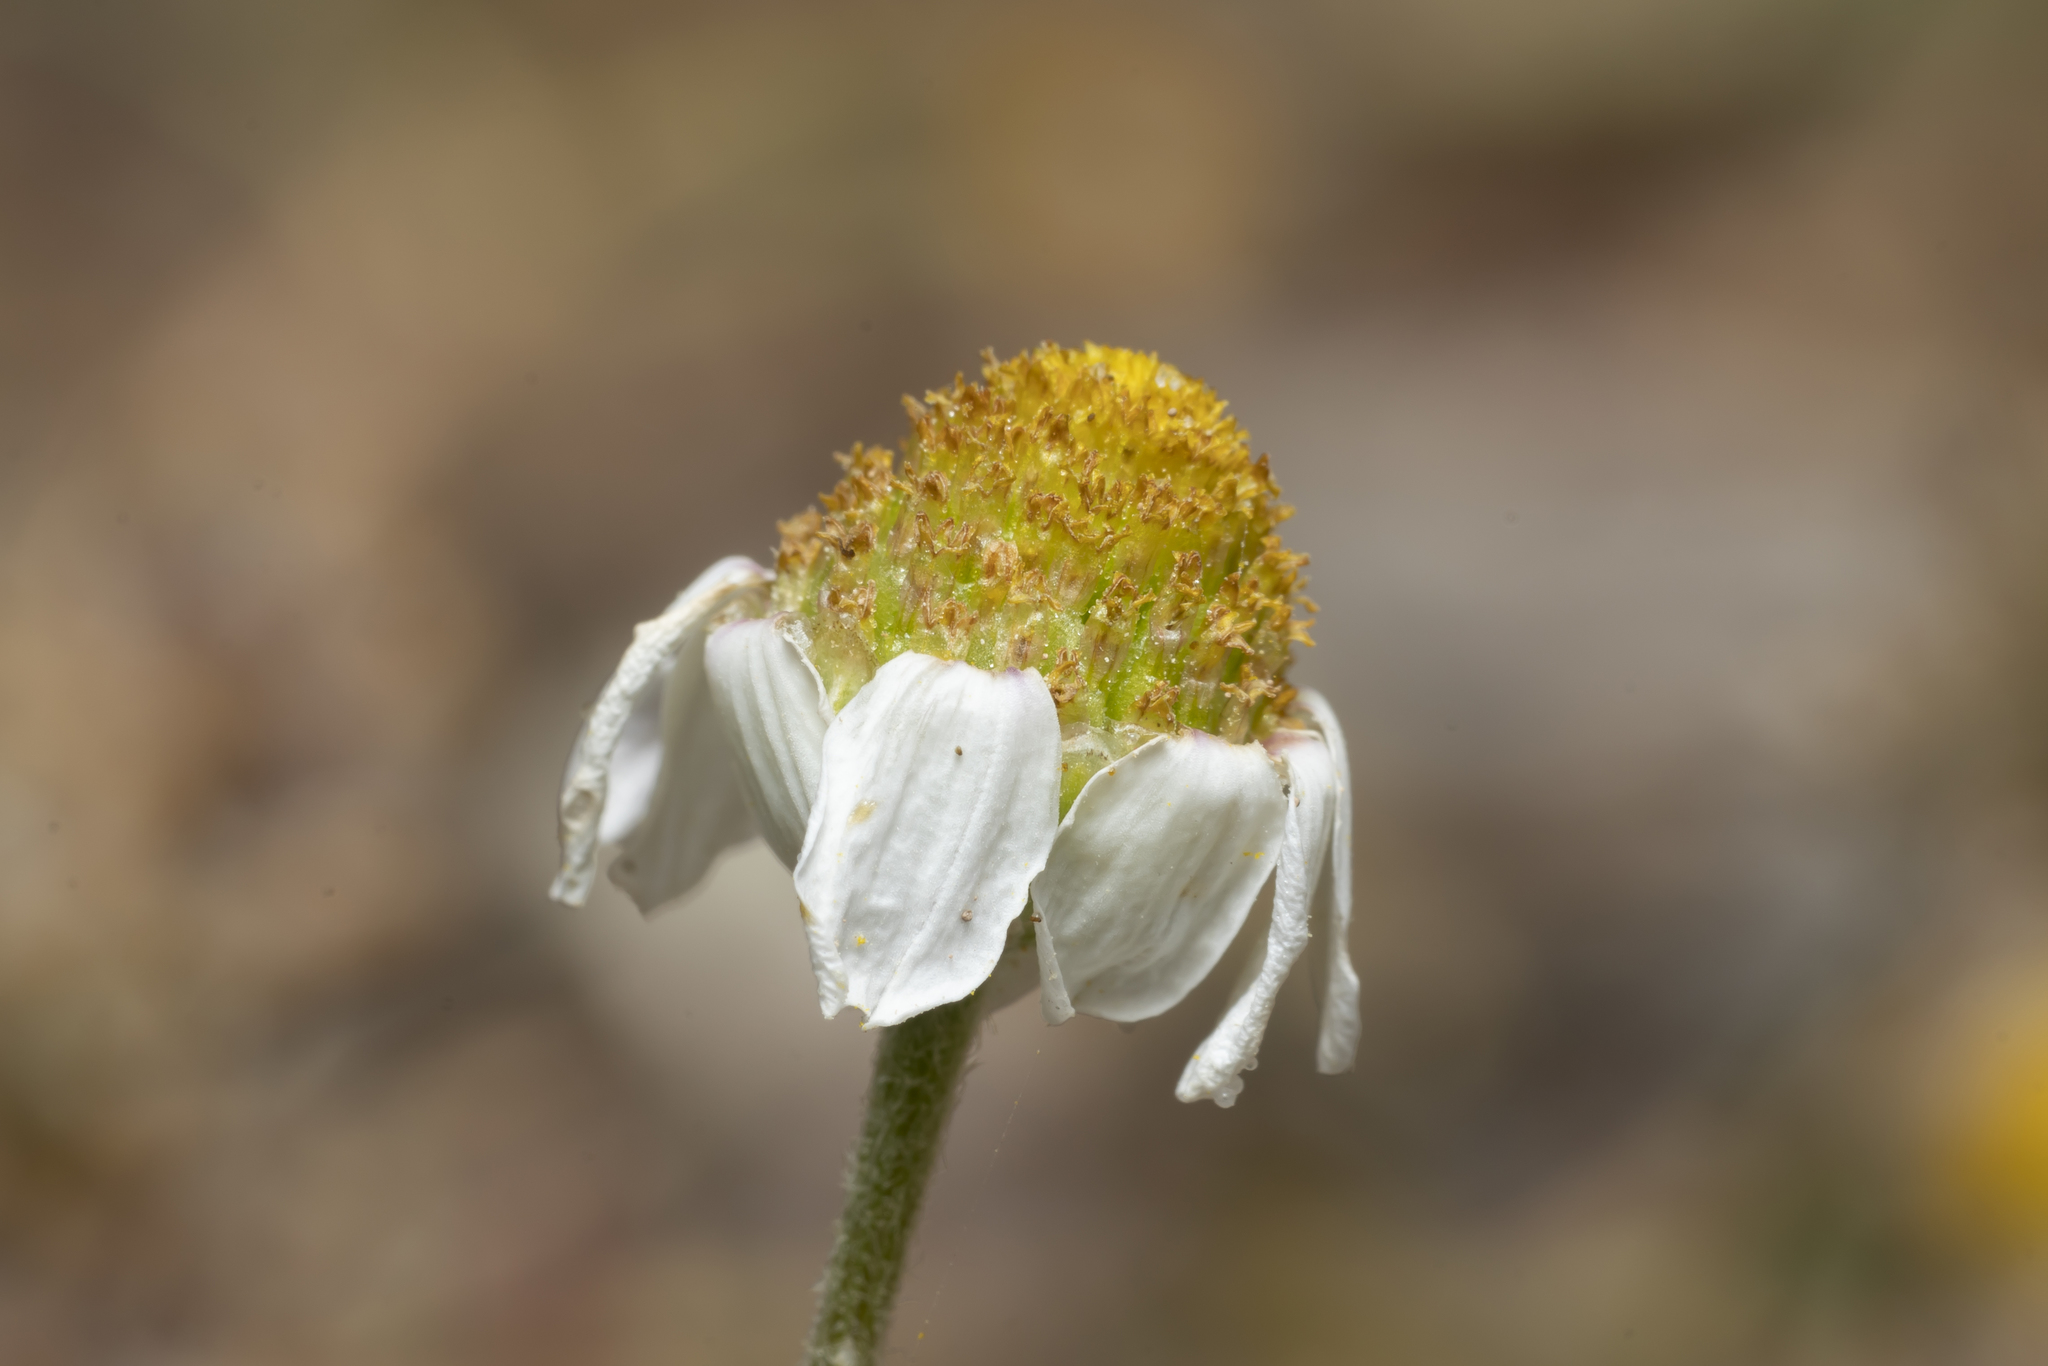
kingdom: Plantae
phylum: Tracheophyta
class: Magnoliopsida
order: Asterales
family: Asteraceae
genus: Anthemis
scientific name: Anthemis macrotis
